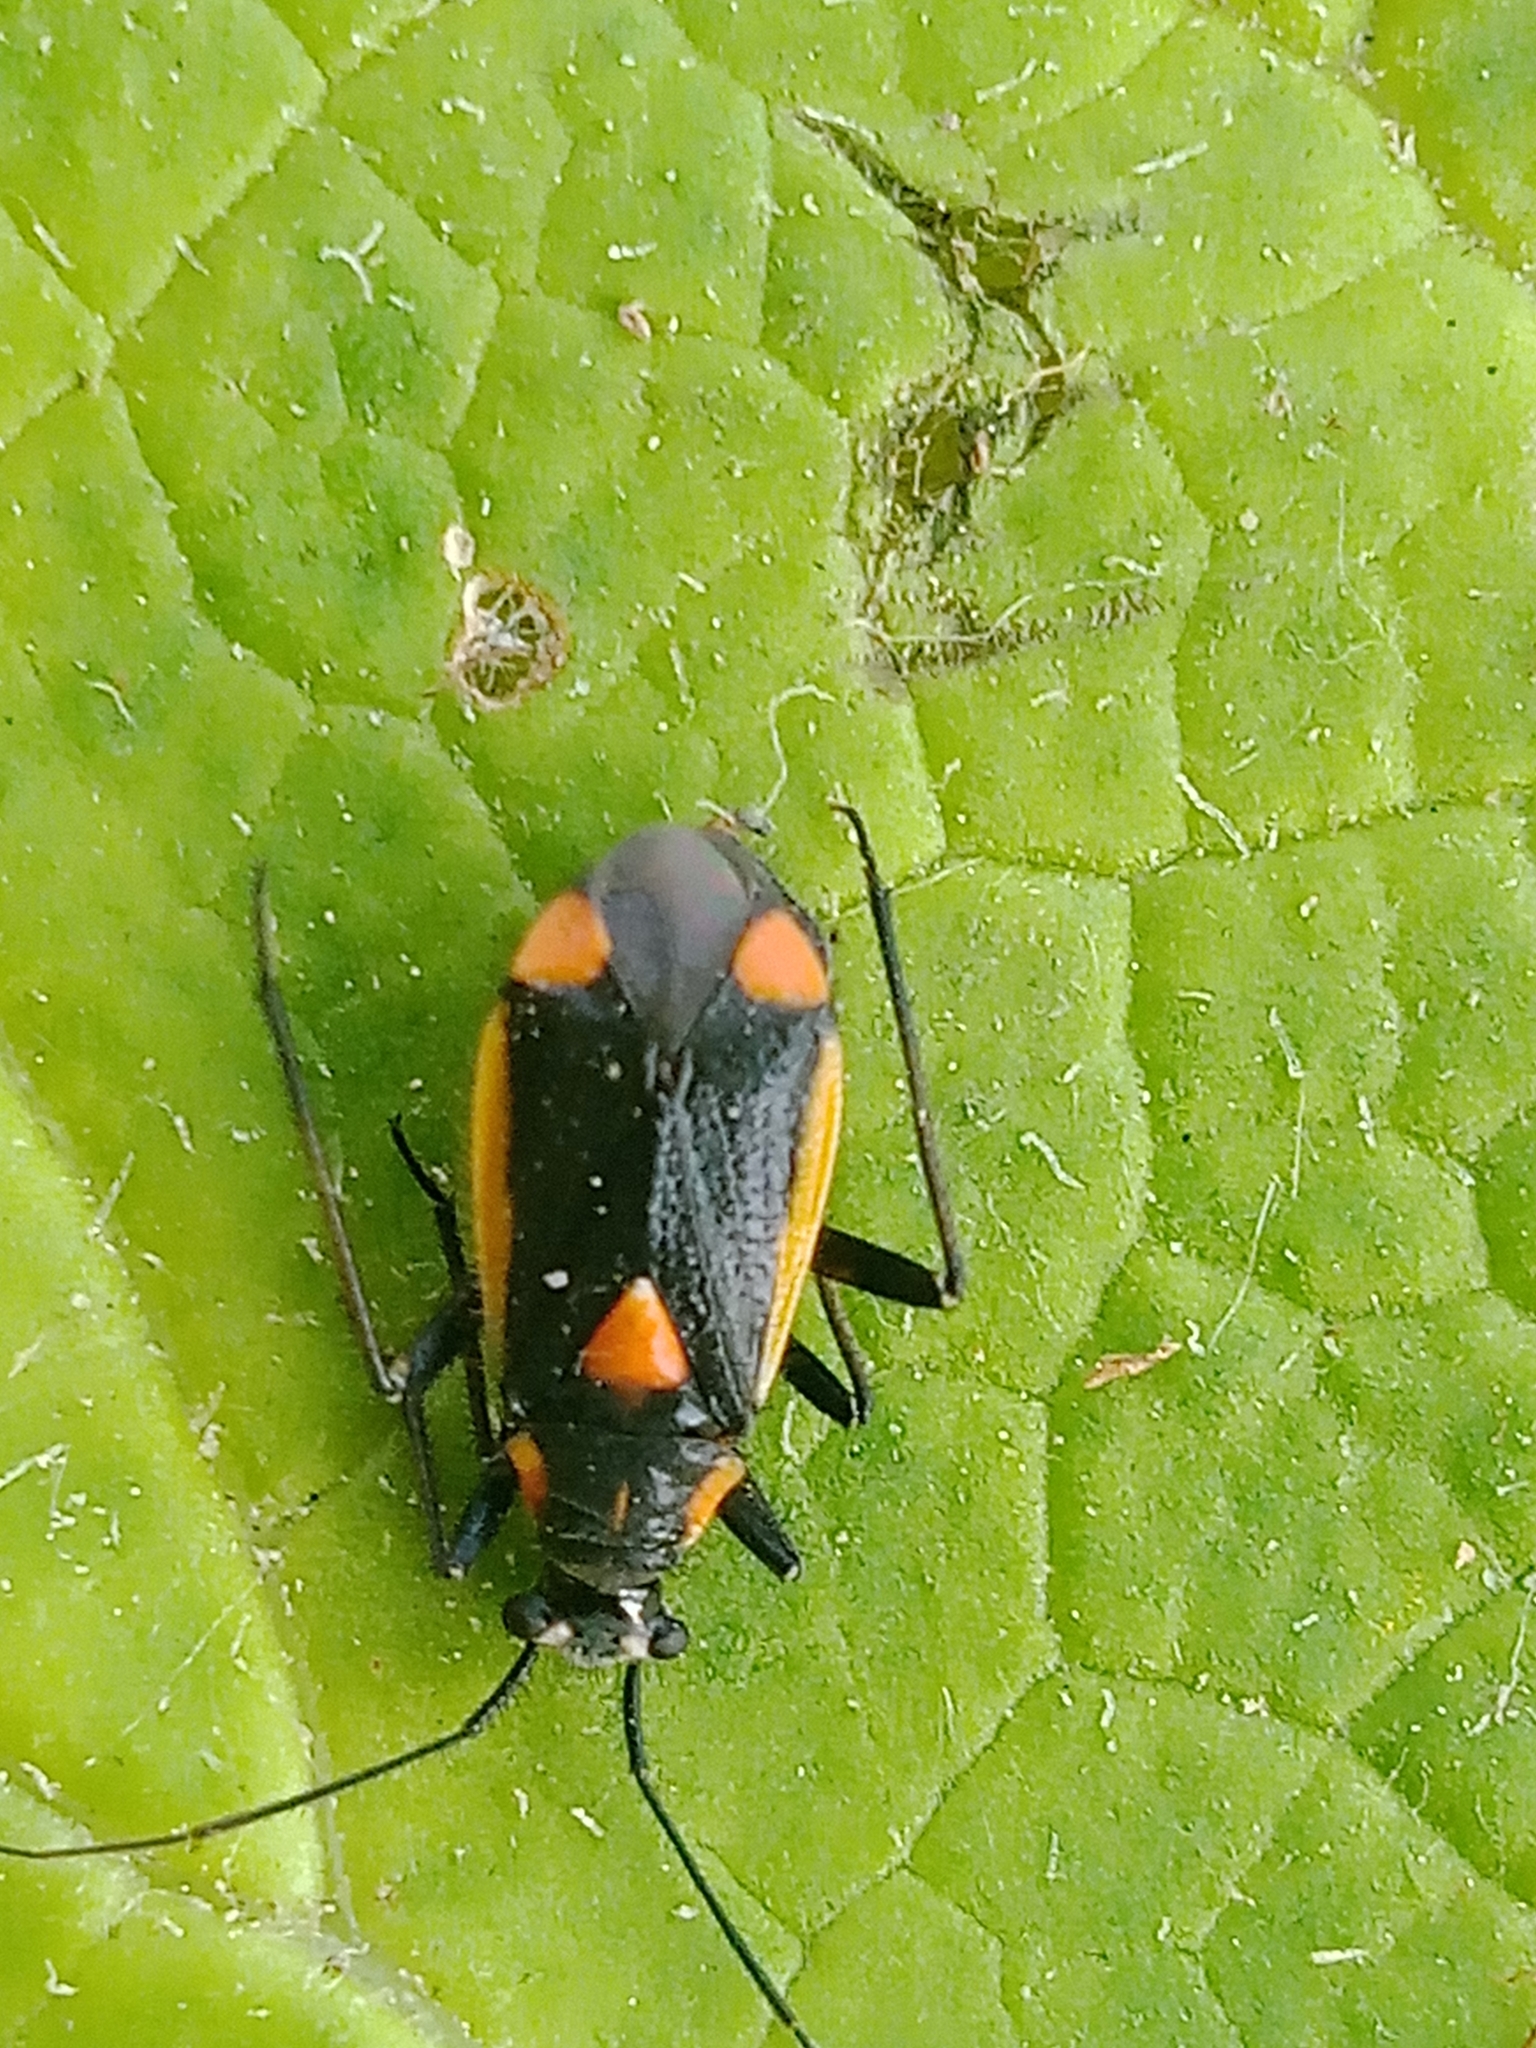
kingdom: Animalia
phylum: Arthropoda
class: Insecta
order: Hemiptera
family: Miridae
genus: Capsodes
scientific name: Capsodes gothicus
